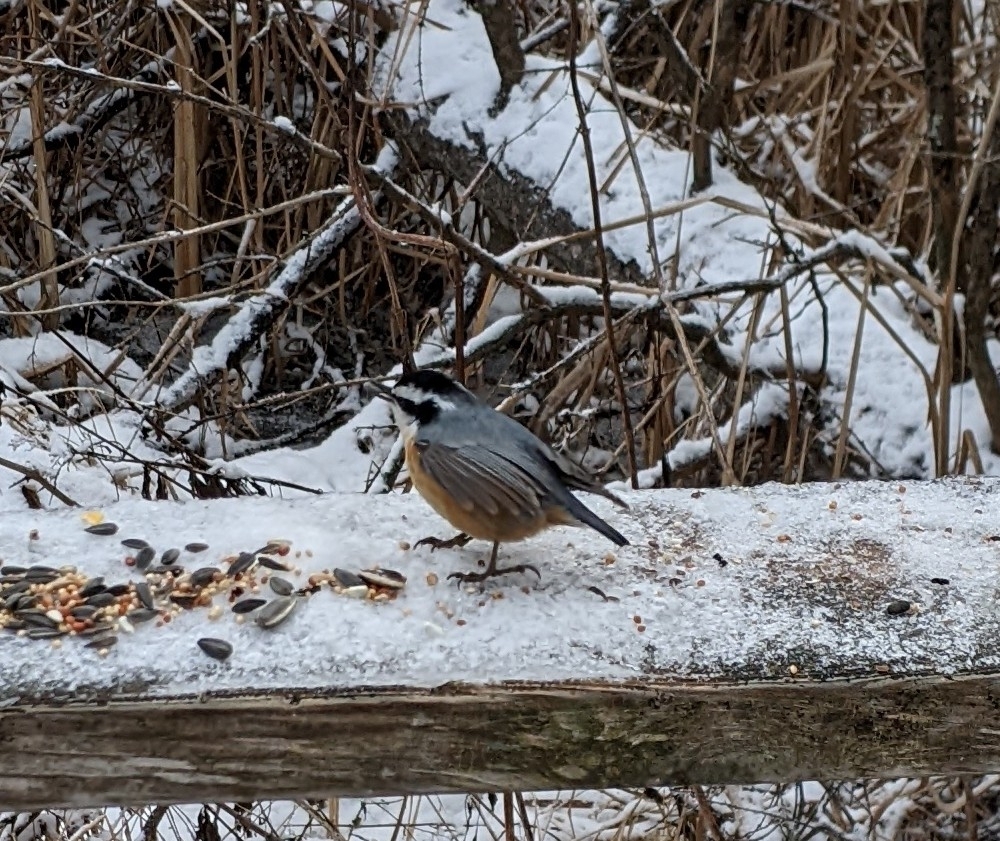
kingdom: Animalia
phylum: Chordata
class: Aves
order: Passeriformes
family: Sittidae
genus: Sitta
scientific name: Sitta canadensis
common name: Red-breasted nuthatch
